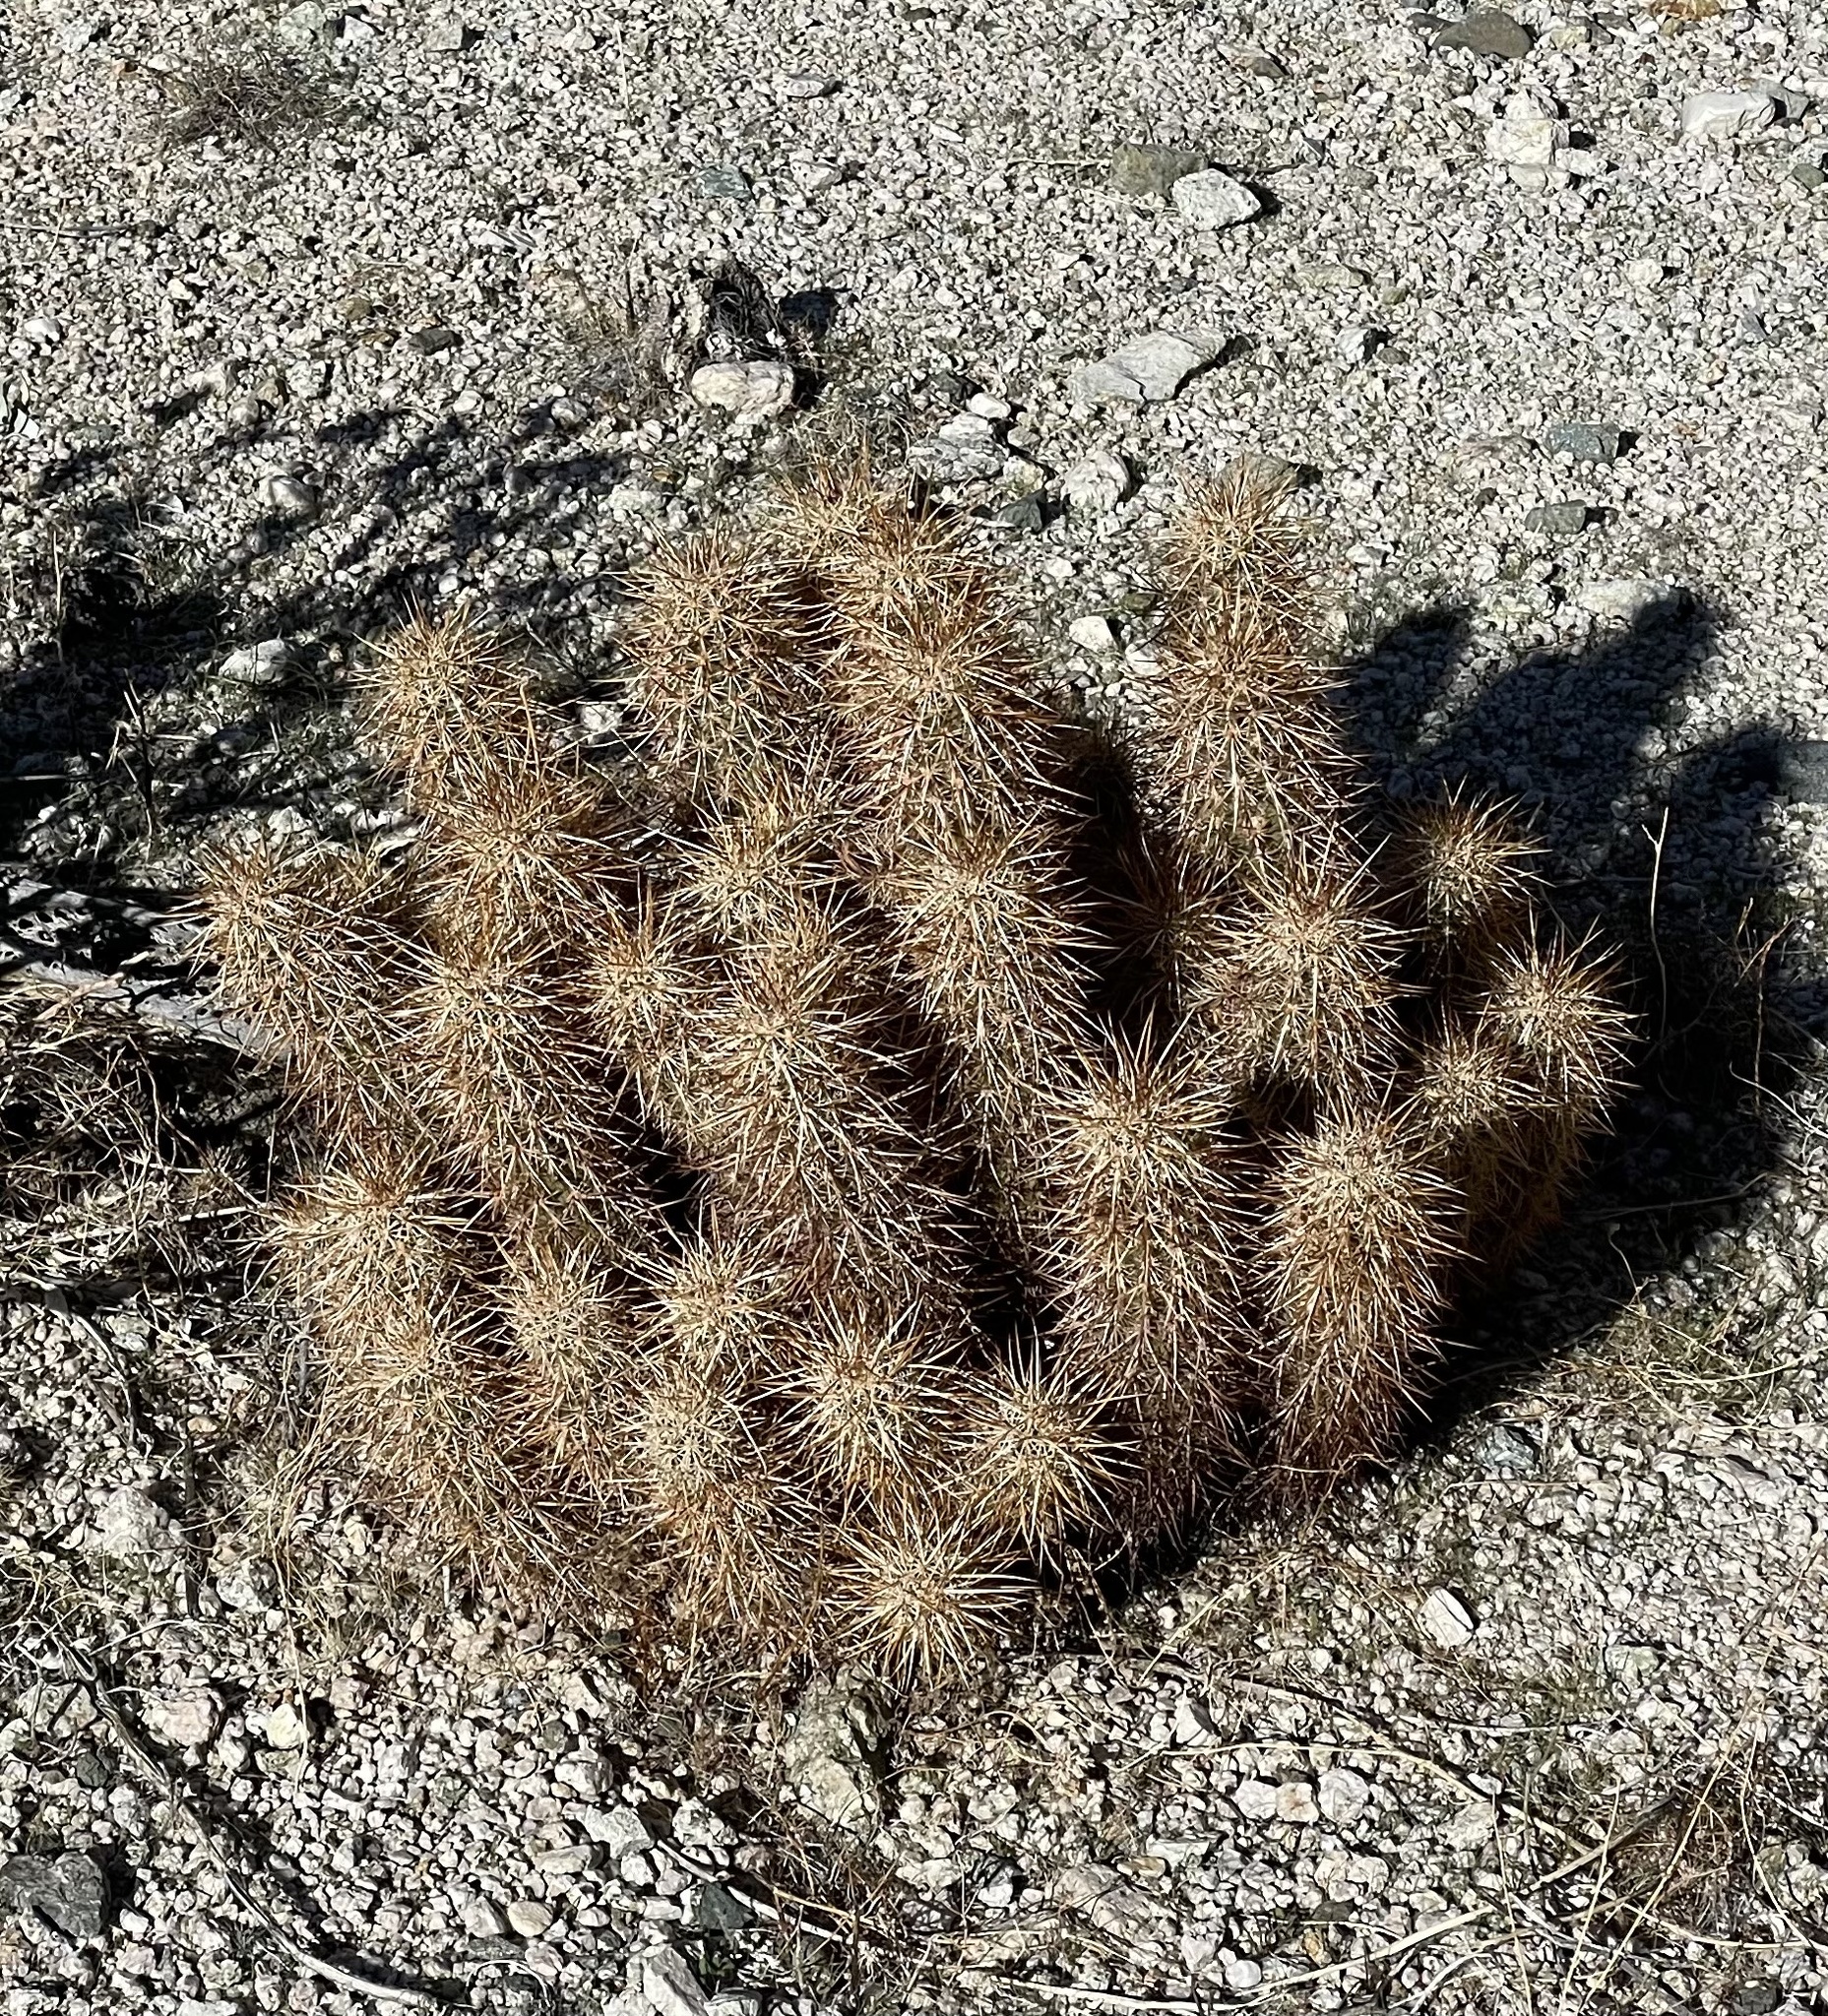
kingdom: Plantae
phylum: Tracheophyta
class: Magnoliopsida
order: Caryophyllales
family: Cactaceae
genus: Echinocereus
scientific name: Echinocereus engelmannii
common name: Engelmann's hedgehog cactus
